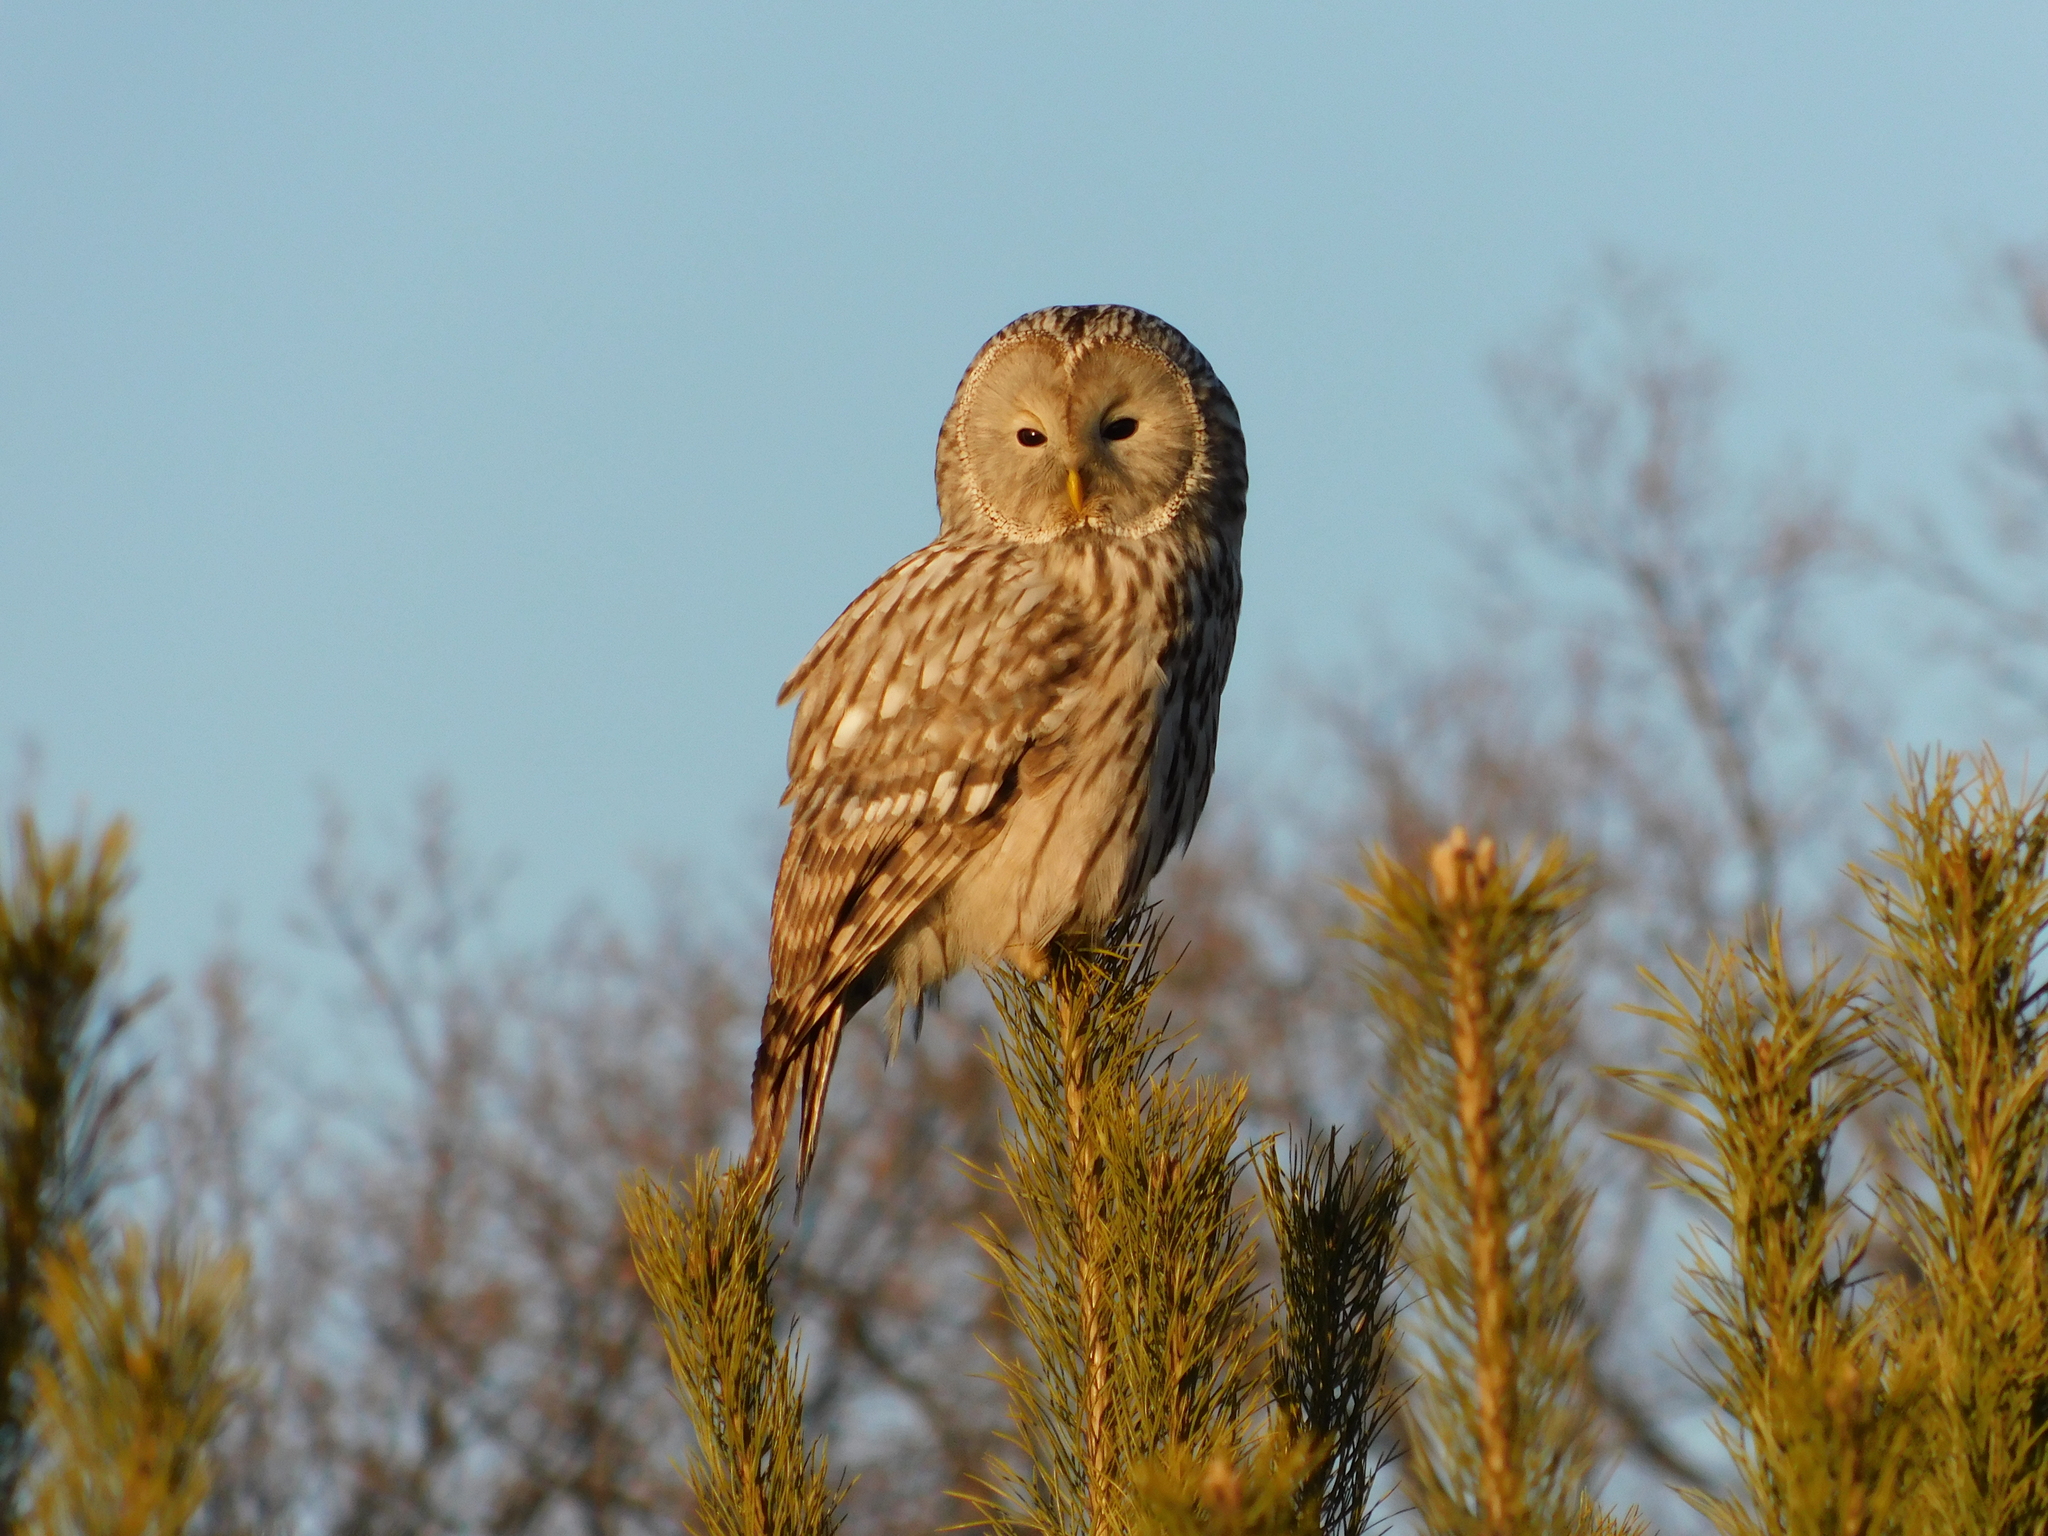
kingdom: Animalia
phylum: Chordata
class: Aves
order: Strigiformes
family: Strigidae
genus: Strix
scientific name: Strix uralensis
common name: Ural owl
